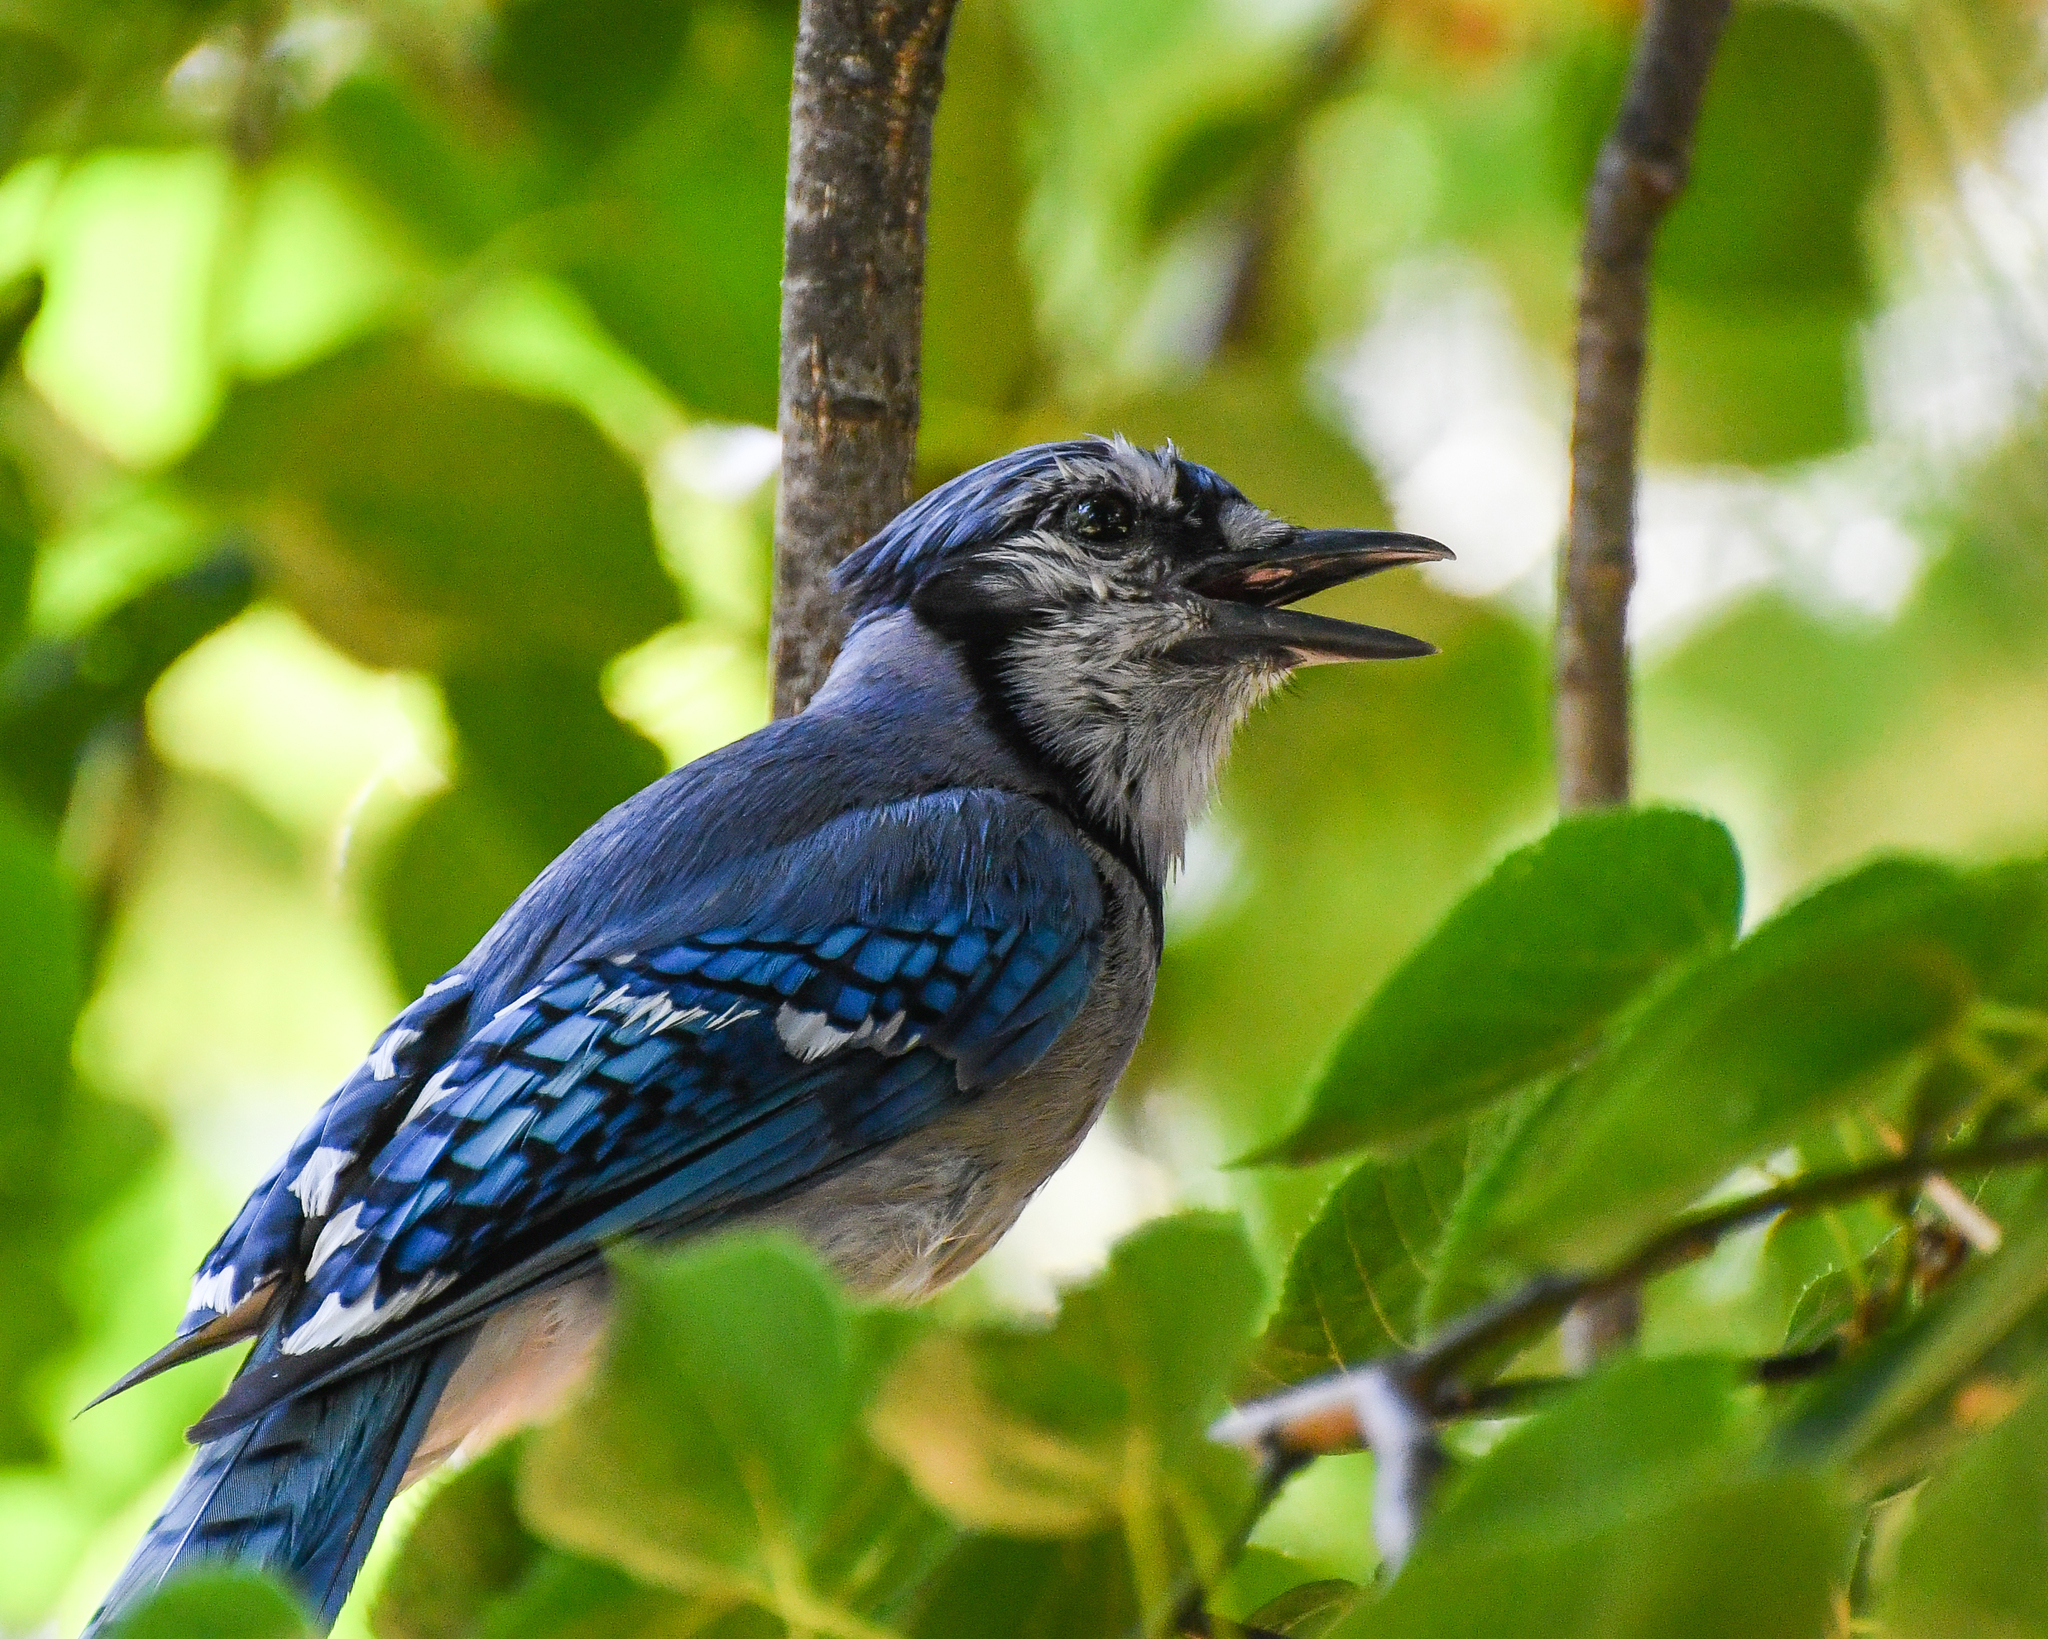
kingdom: Animalia
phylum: Chordata
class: Aves
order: Passeriformes
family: Corvidae
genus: Cyanocitta
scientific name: Cyanocitta cristata
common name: Blue jay
